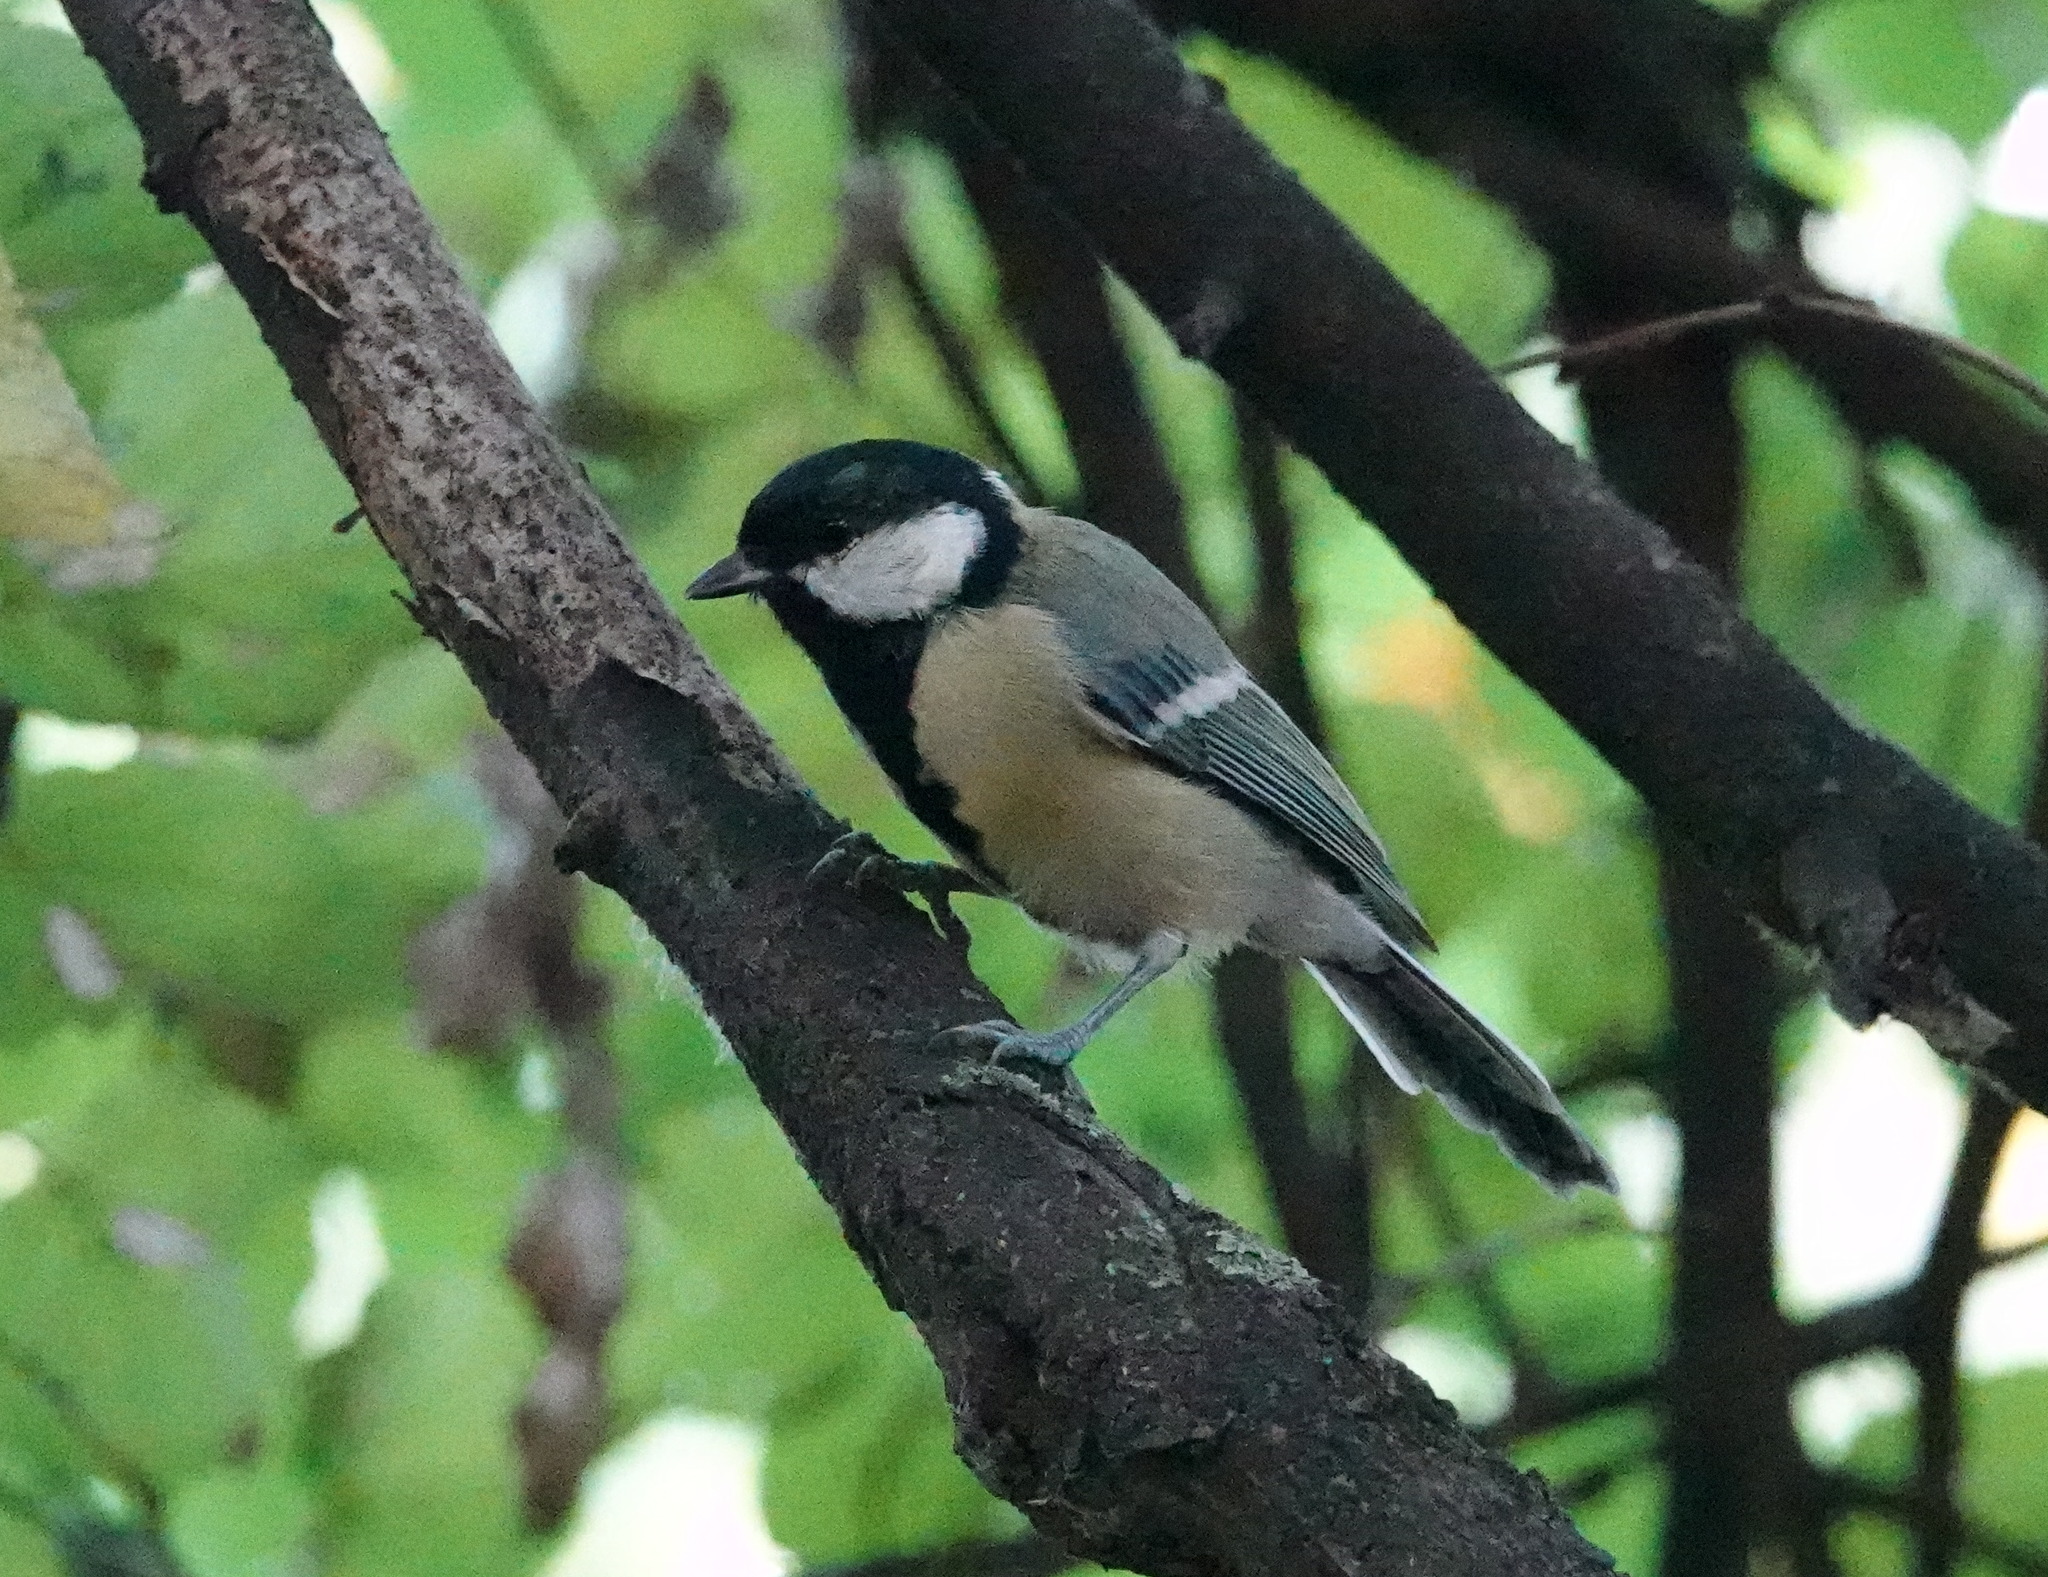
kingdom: Animalia
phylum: Chordata
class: Aves
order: Passeriformes
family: Paridae
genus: Parus
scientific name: Parus major
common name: Great tit
